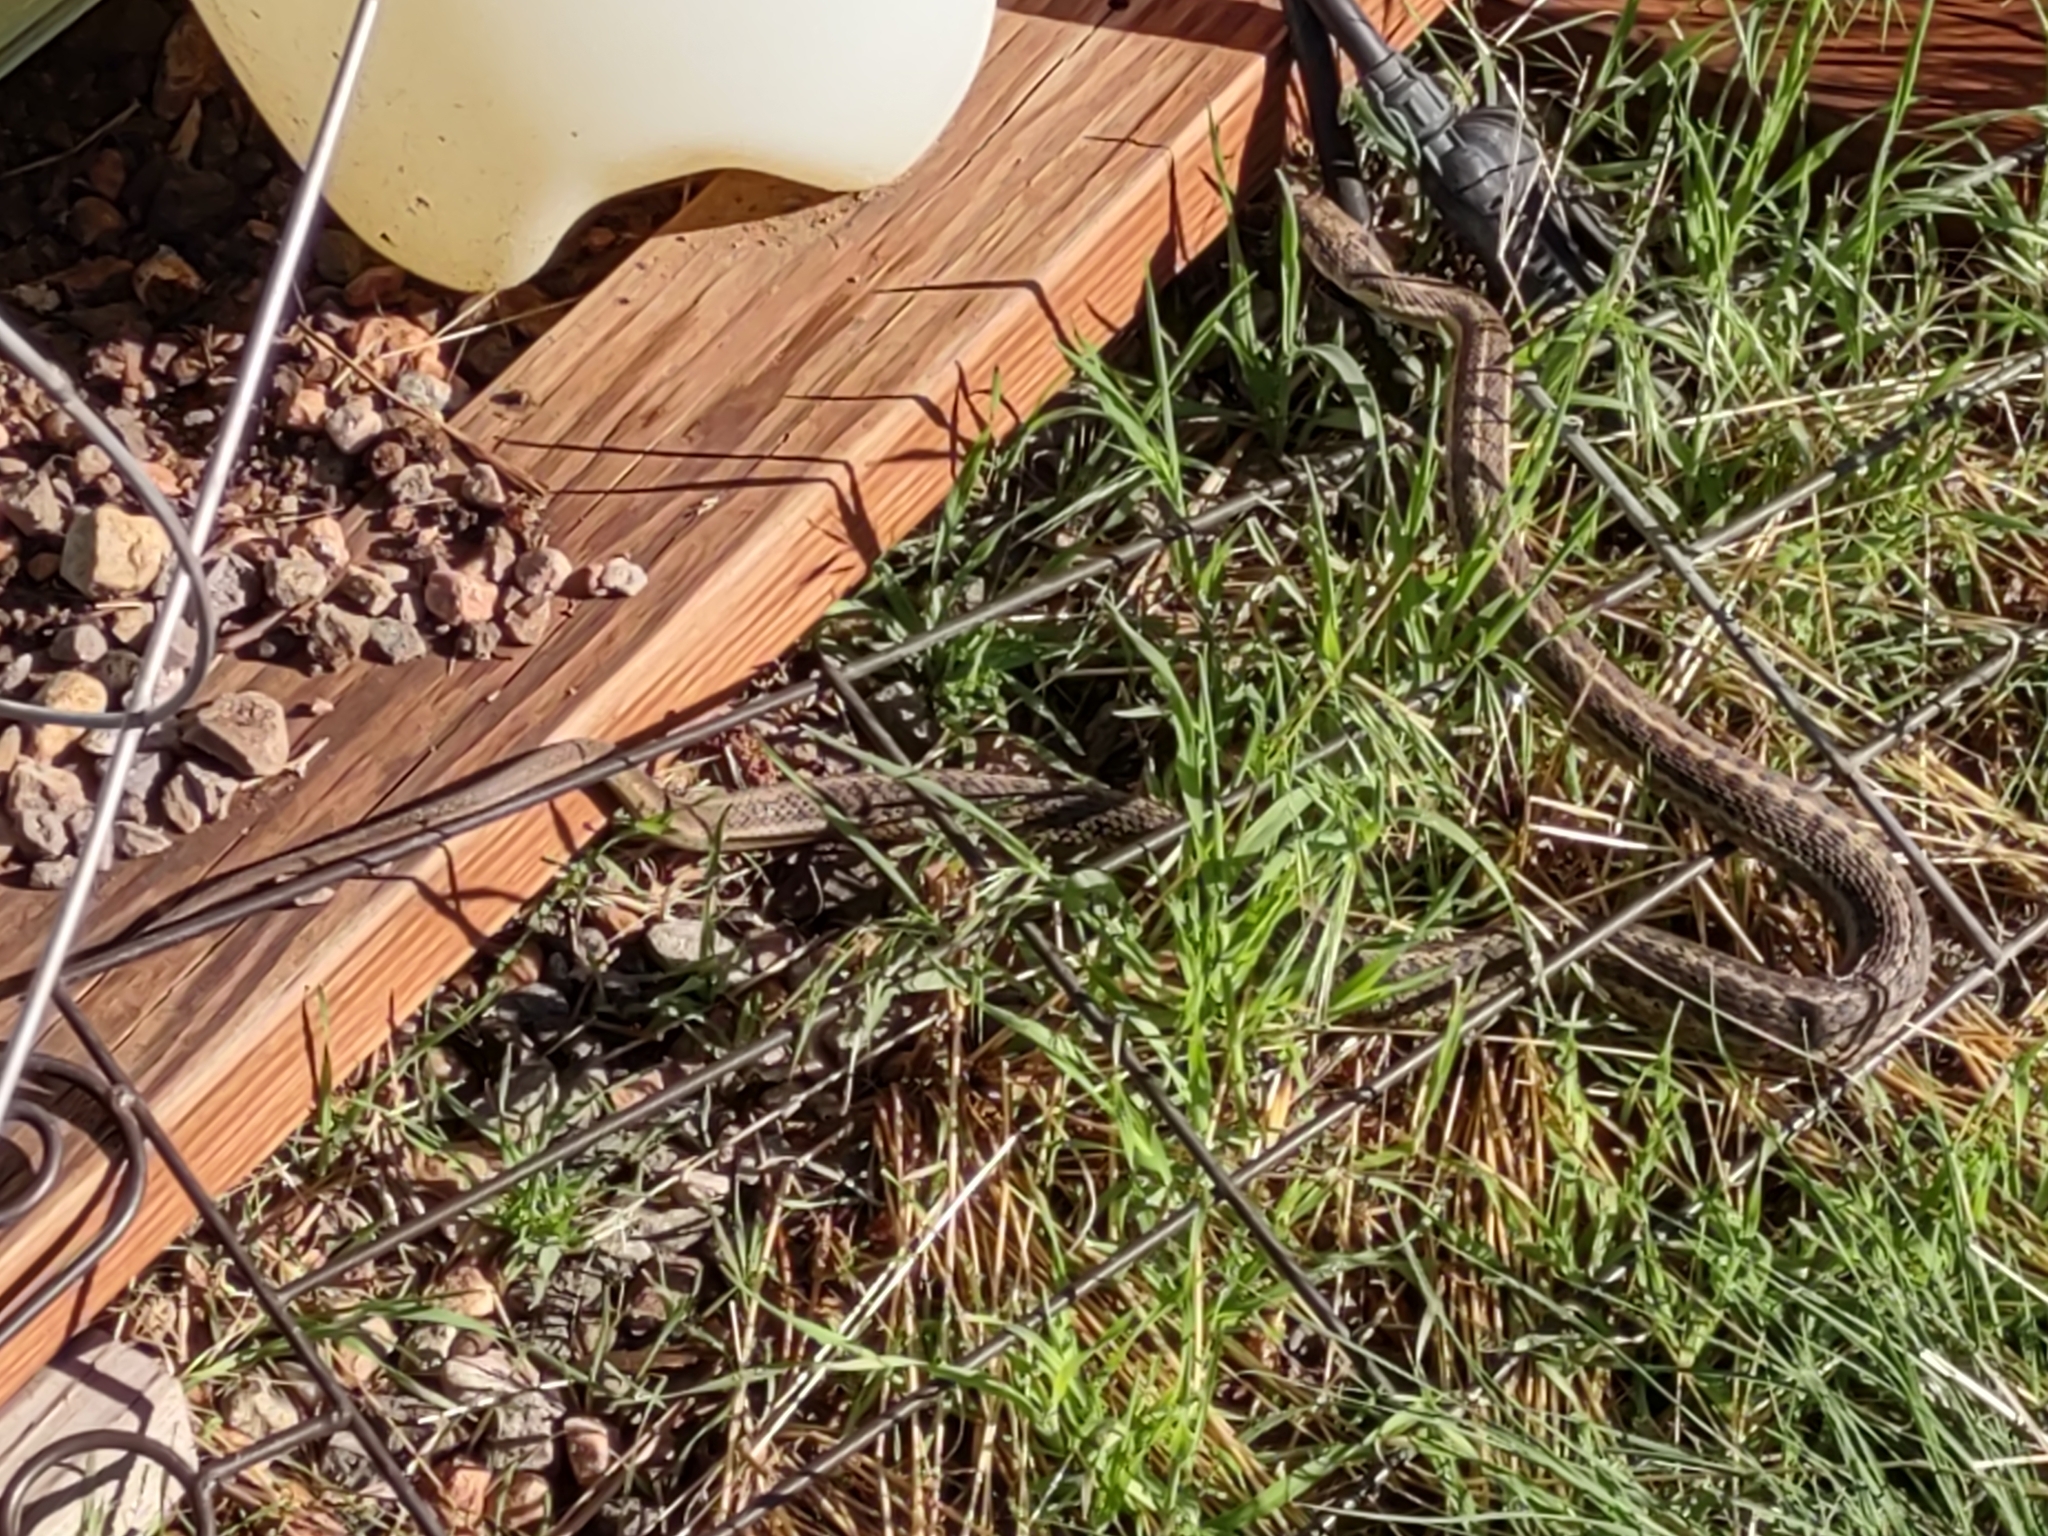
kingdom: Animalia
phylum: Chordata
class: Squamata
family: Colubridae
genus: Thamnophis
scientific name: Thamnophis elegans
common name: Western terrestrial garter snake
